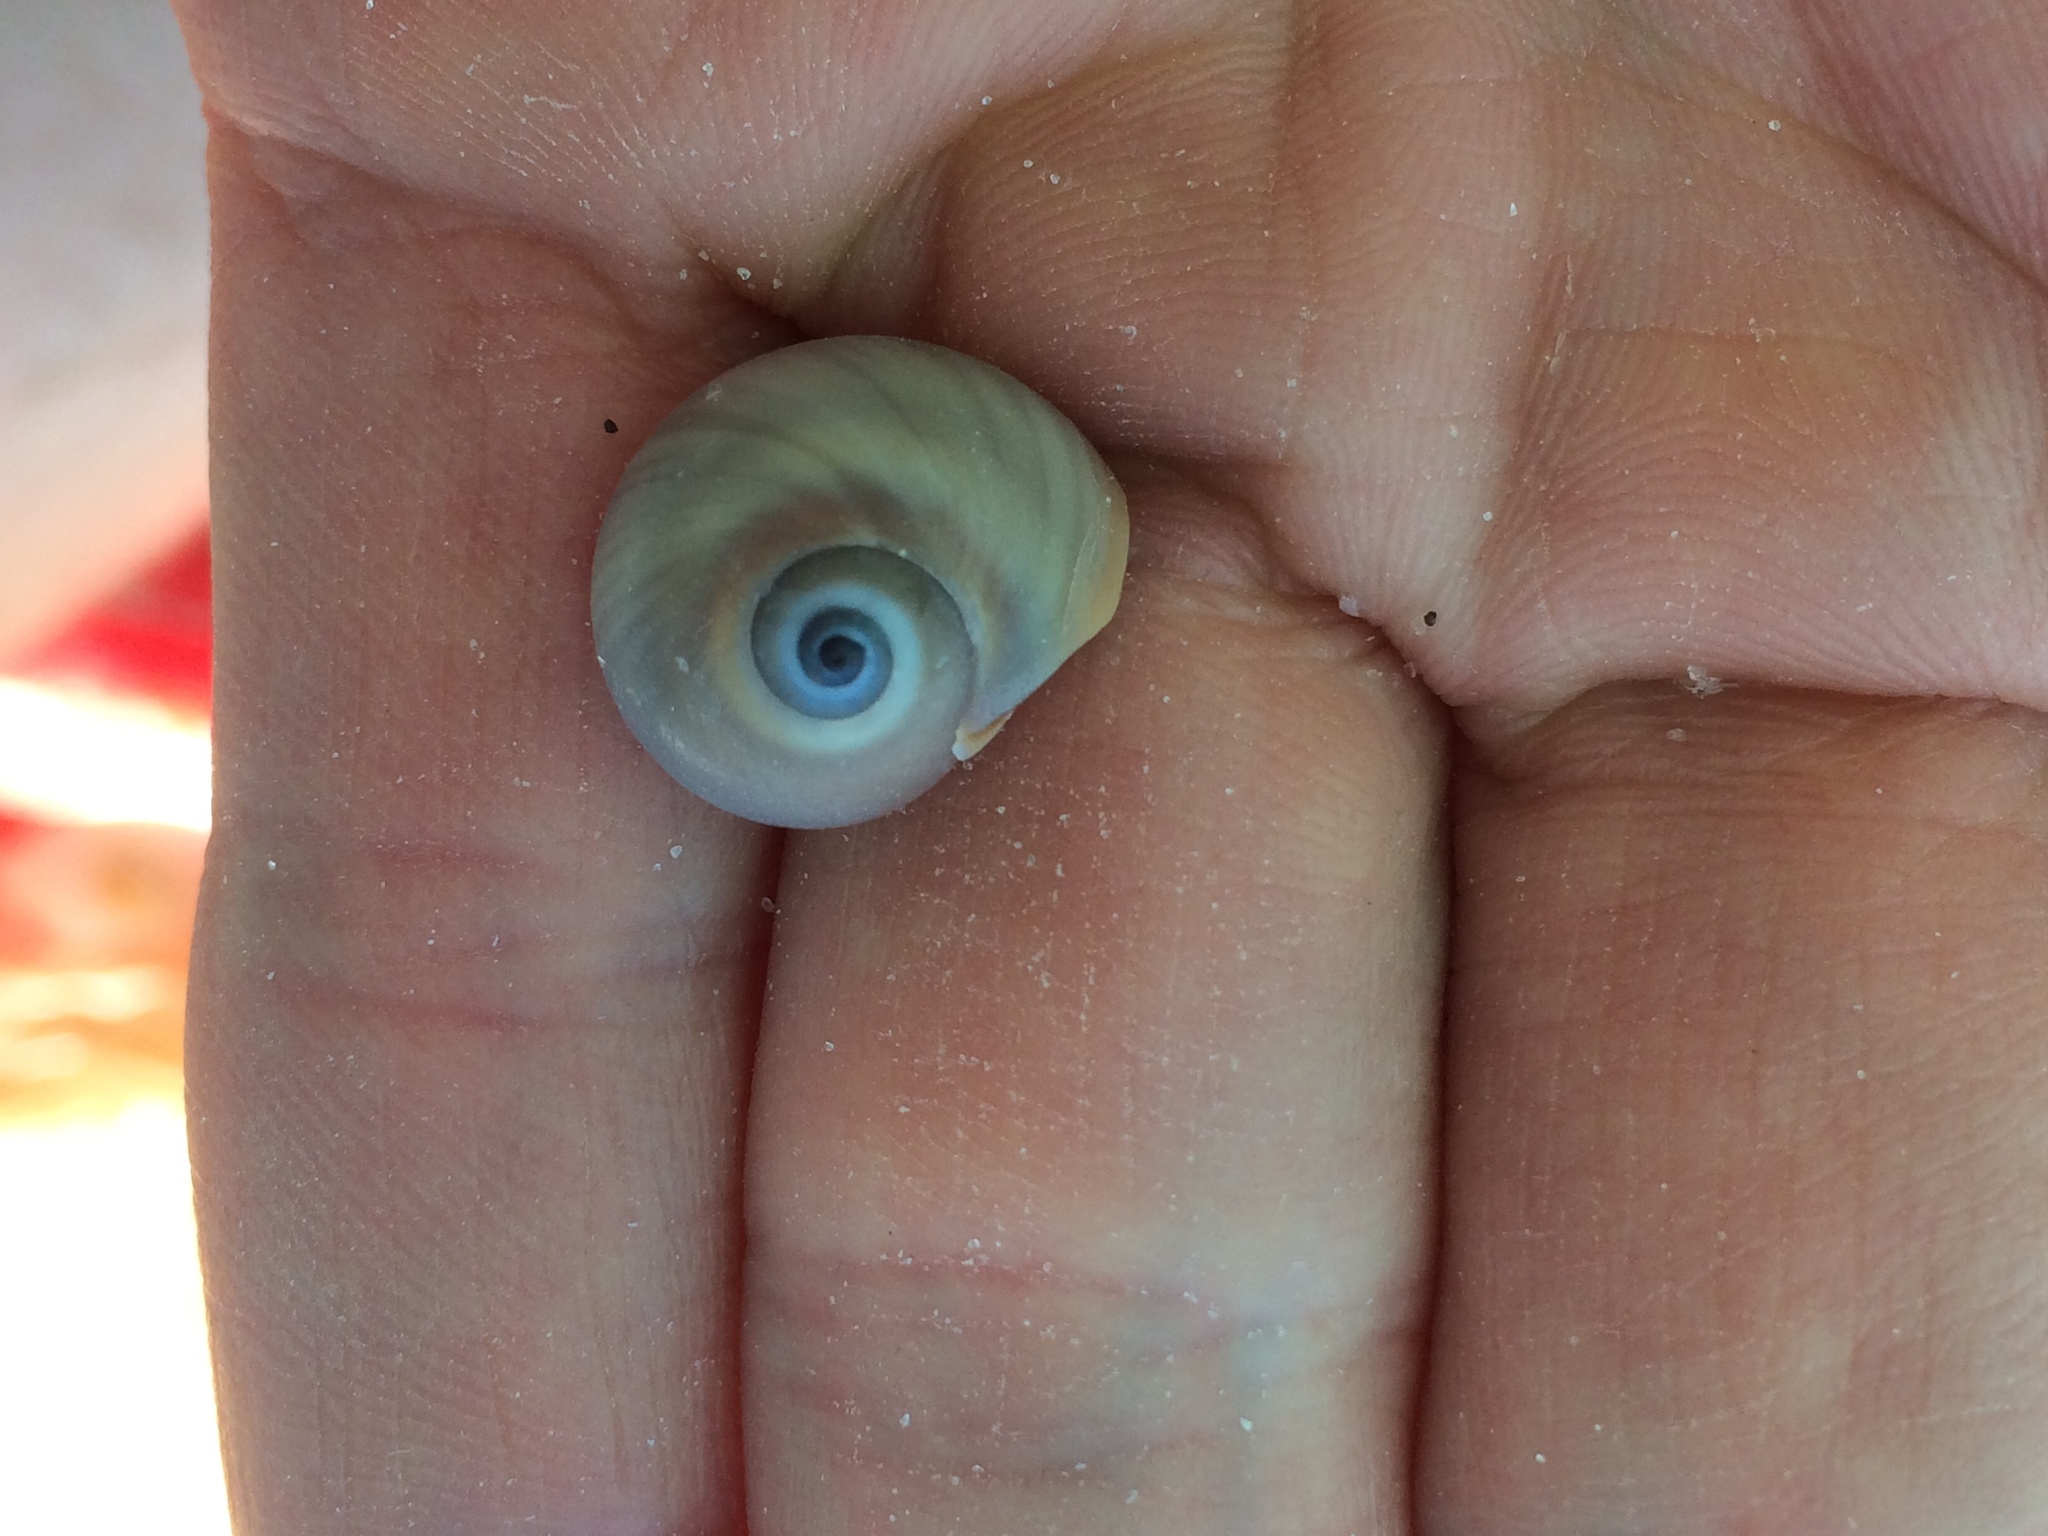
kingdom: Animalia
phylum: Mollusca
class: Gastropoda
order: Littorinimorpha
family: Naticidae
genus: Neverita
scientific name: Neverita delessertiana
